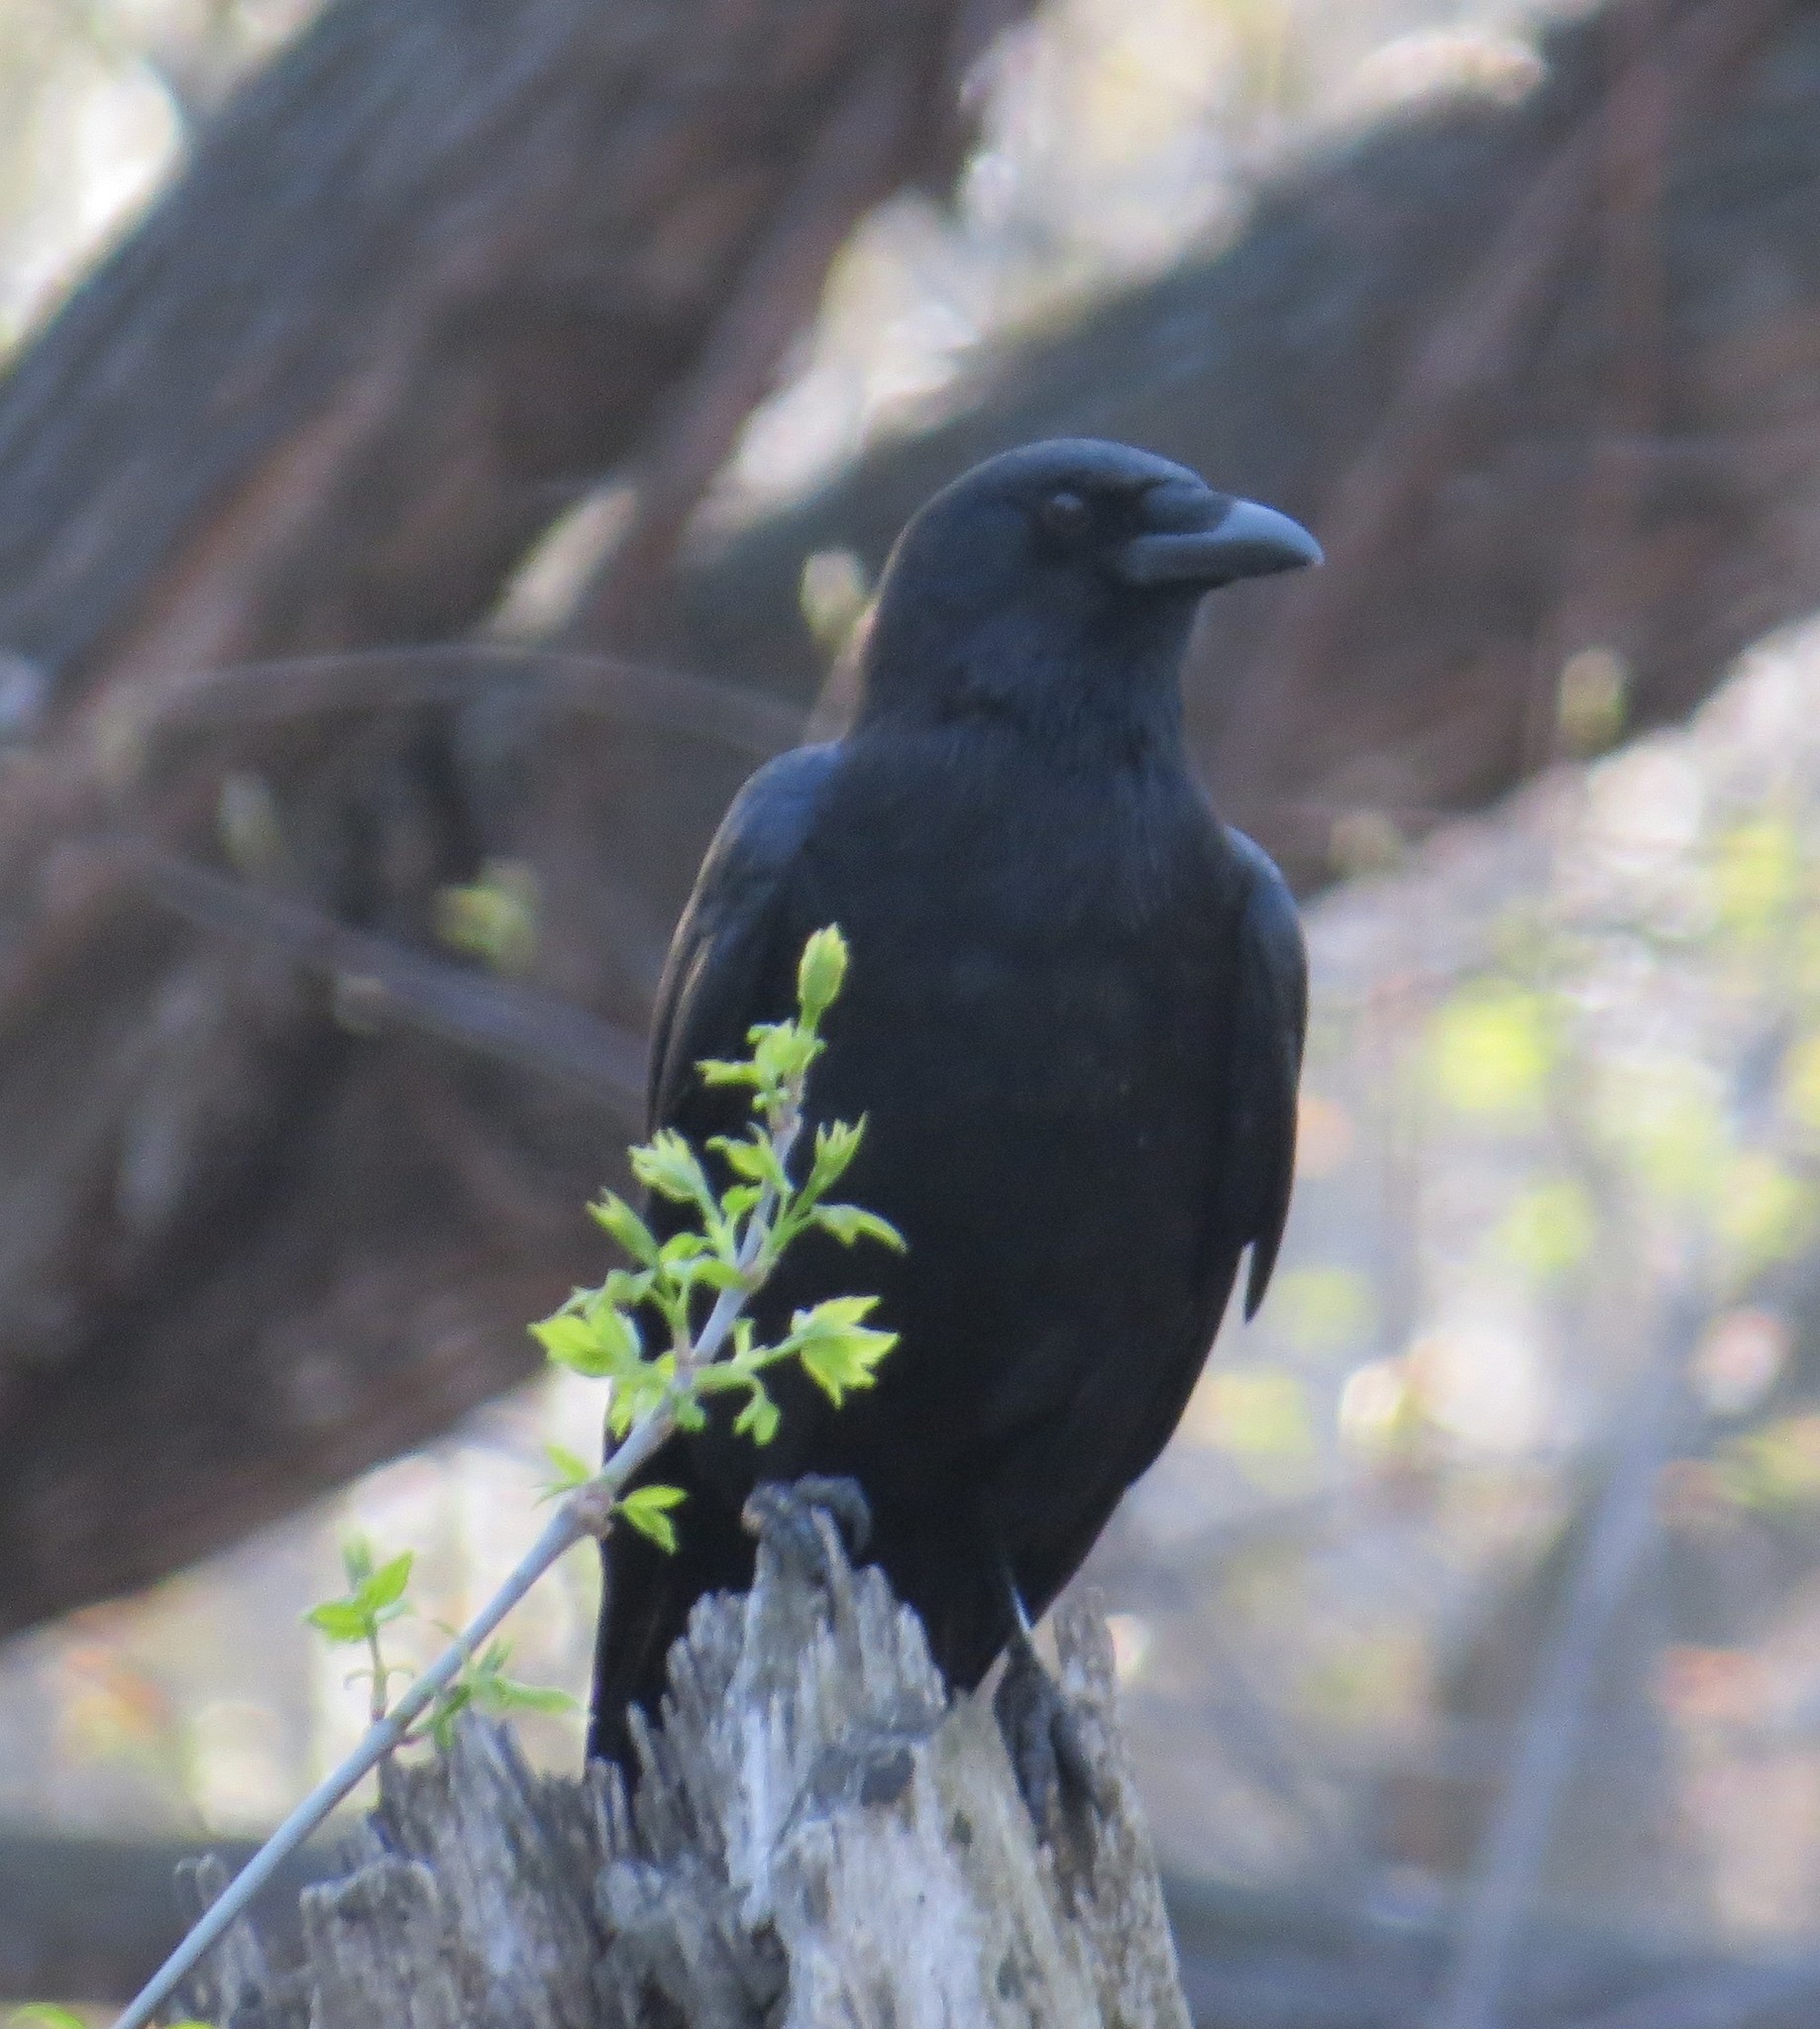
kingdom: Animalia
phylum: Chordata
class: Aves
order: Passeriformes
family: Corvidae
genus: Corvus
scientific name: Corvus brachyrhynchos
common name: American crow
